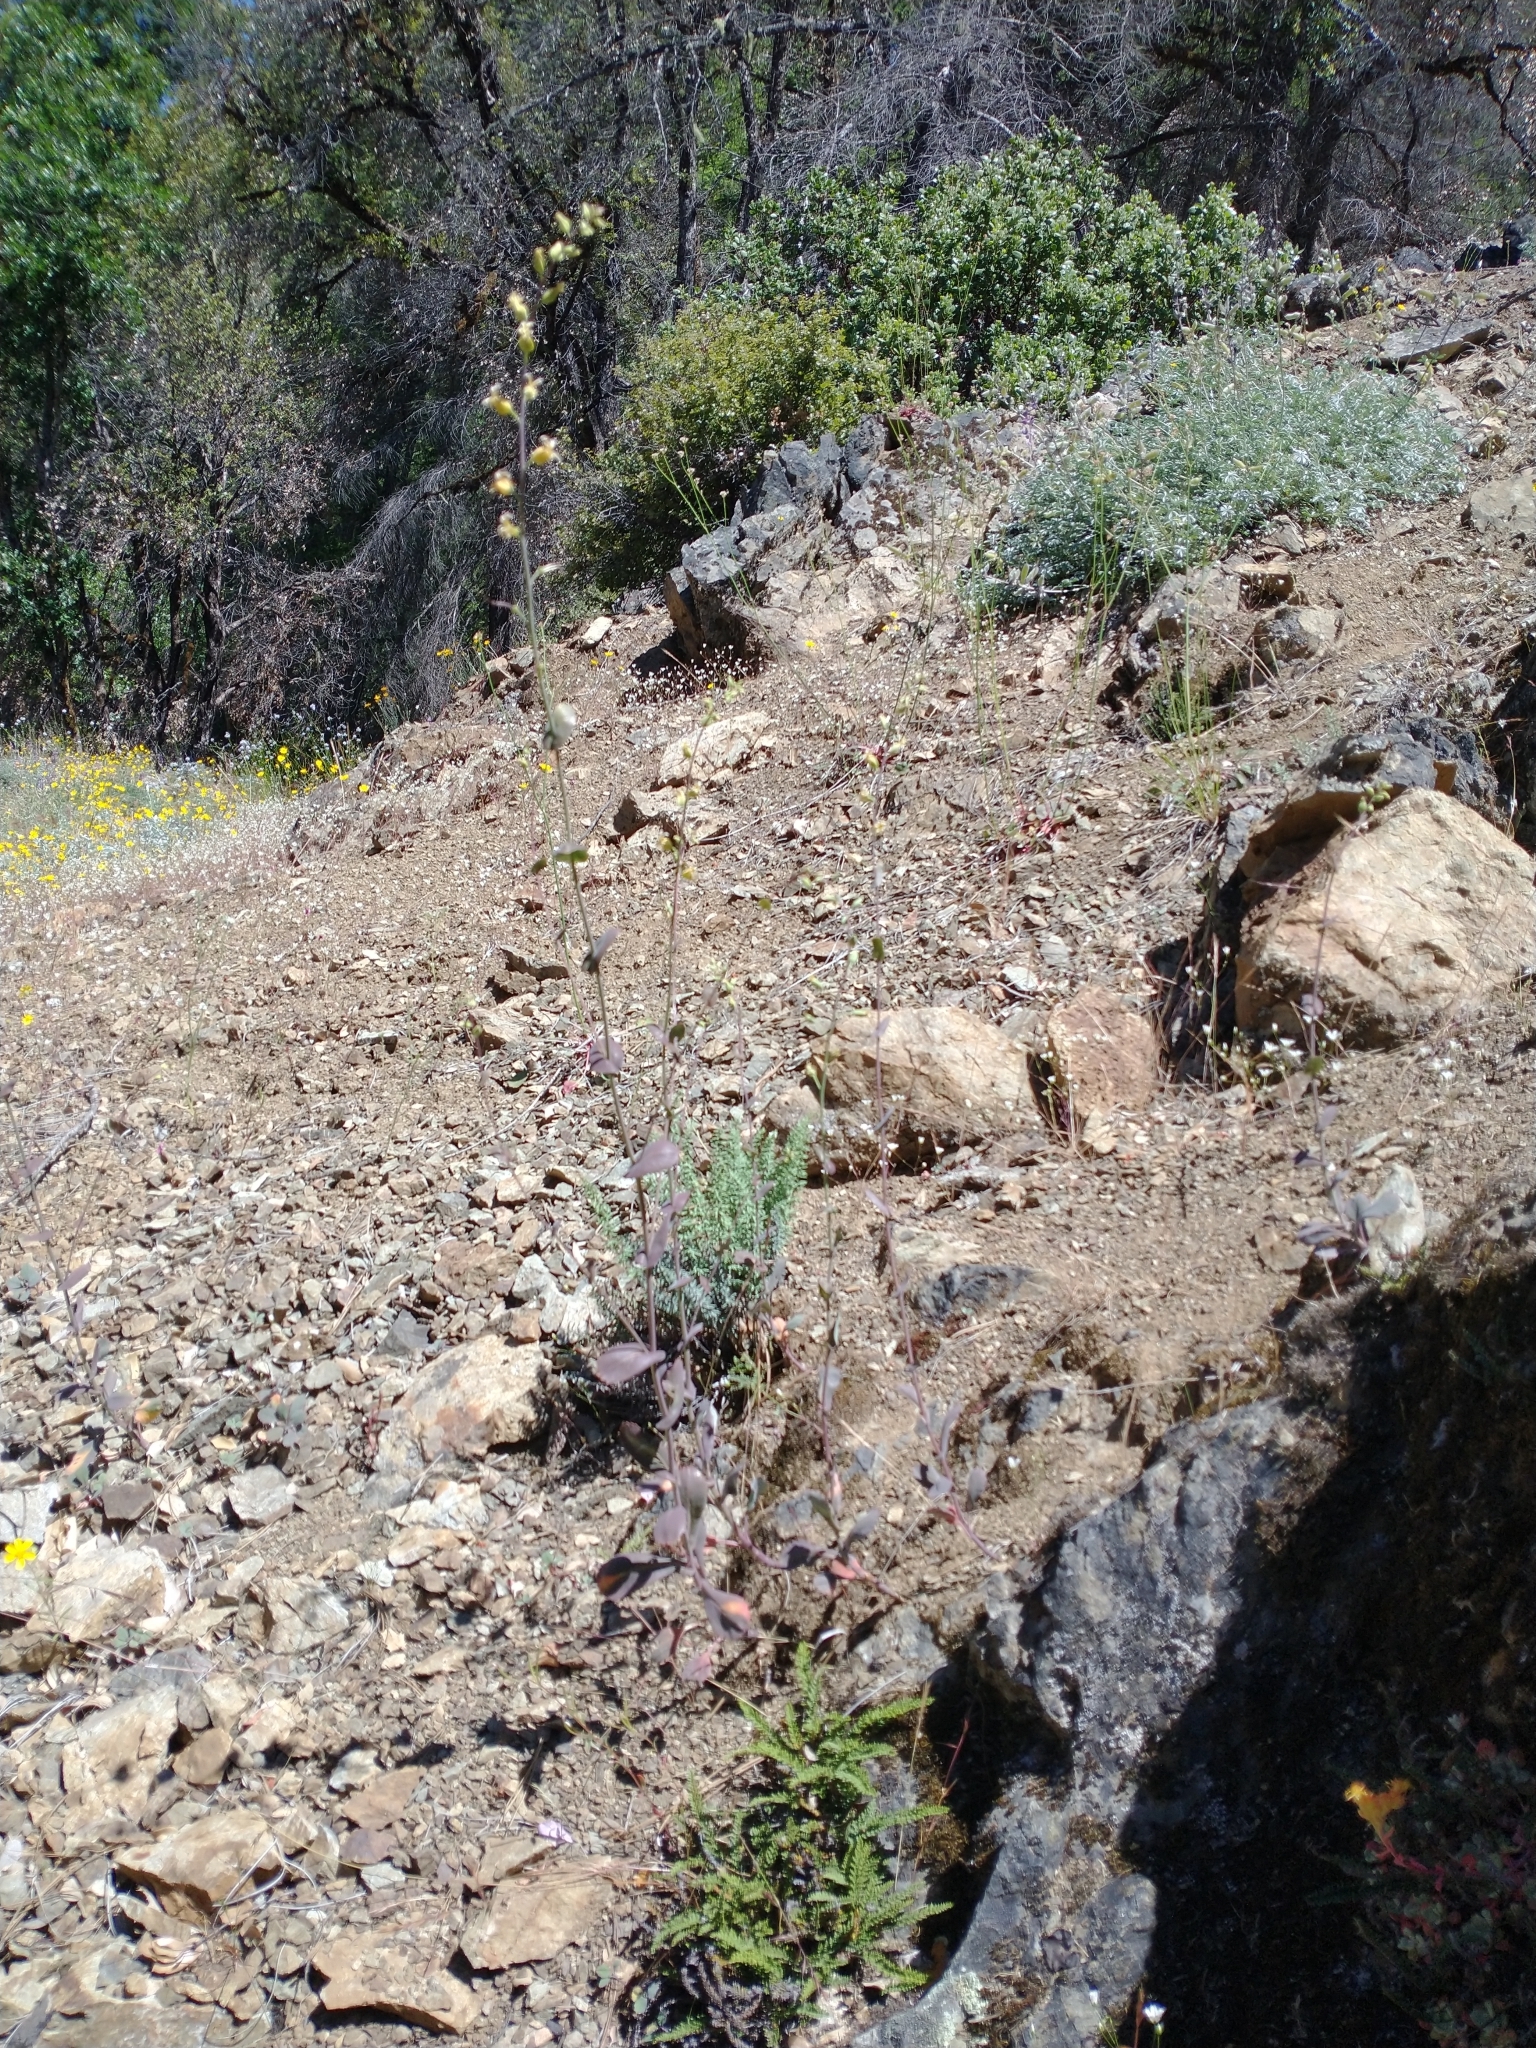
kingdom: Plantae
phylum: Tracheophyta
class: Magnoliopsida
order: Brassicales
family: Brassicaceae
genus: Streptanthus
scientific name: Streptanthus tortuosus
